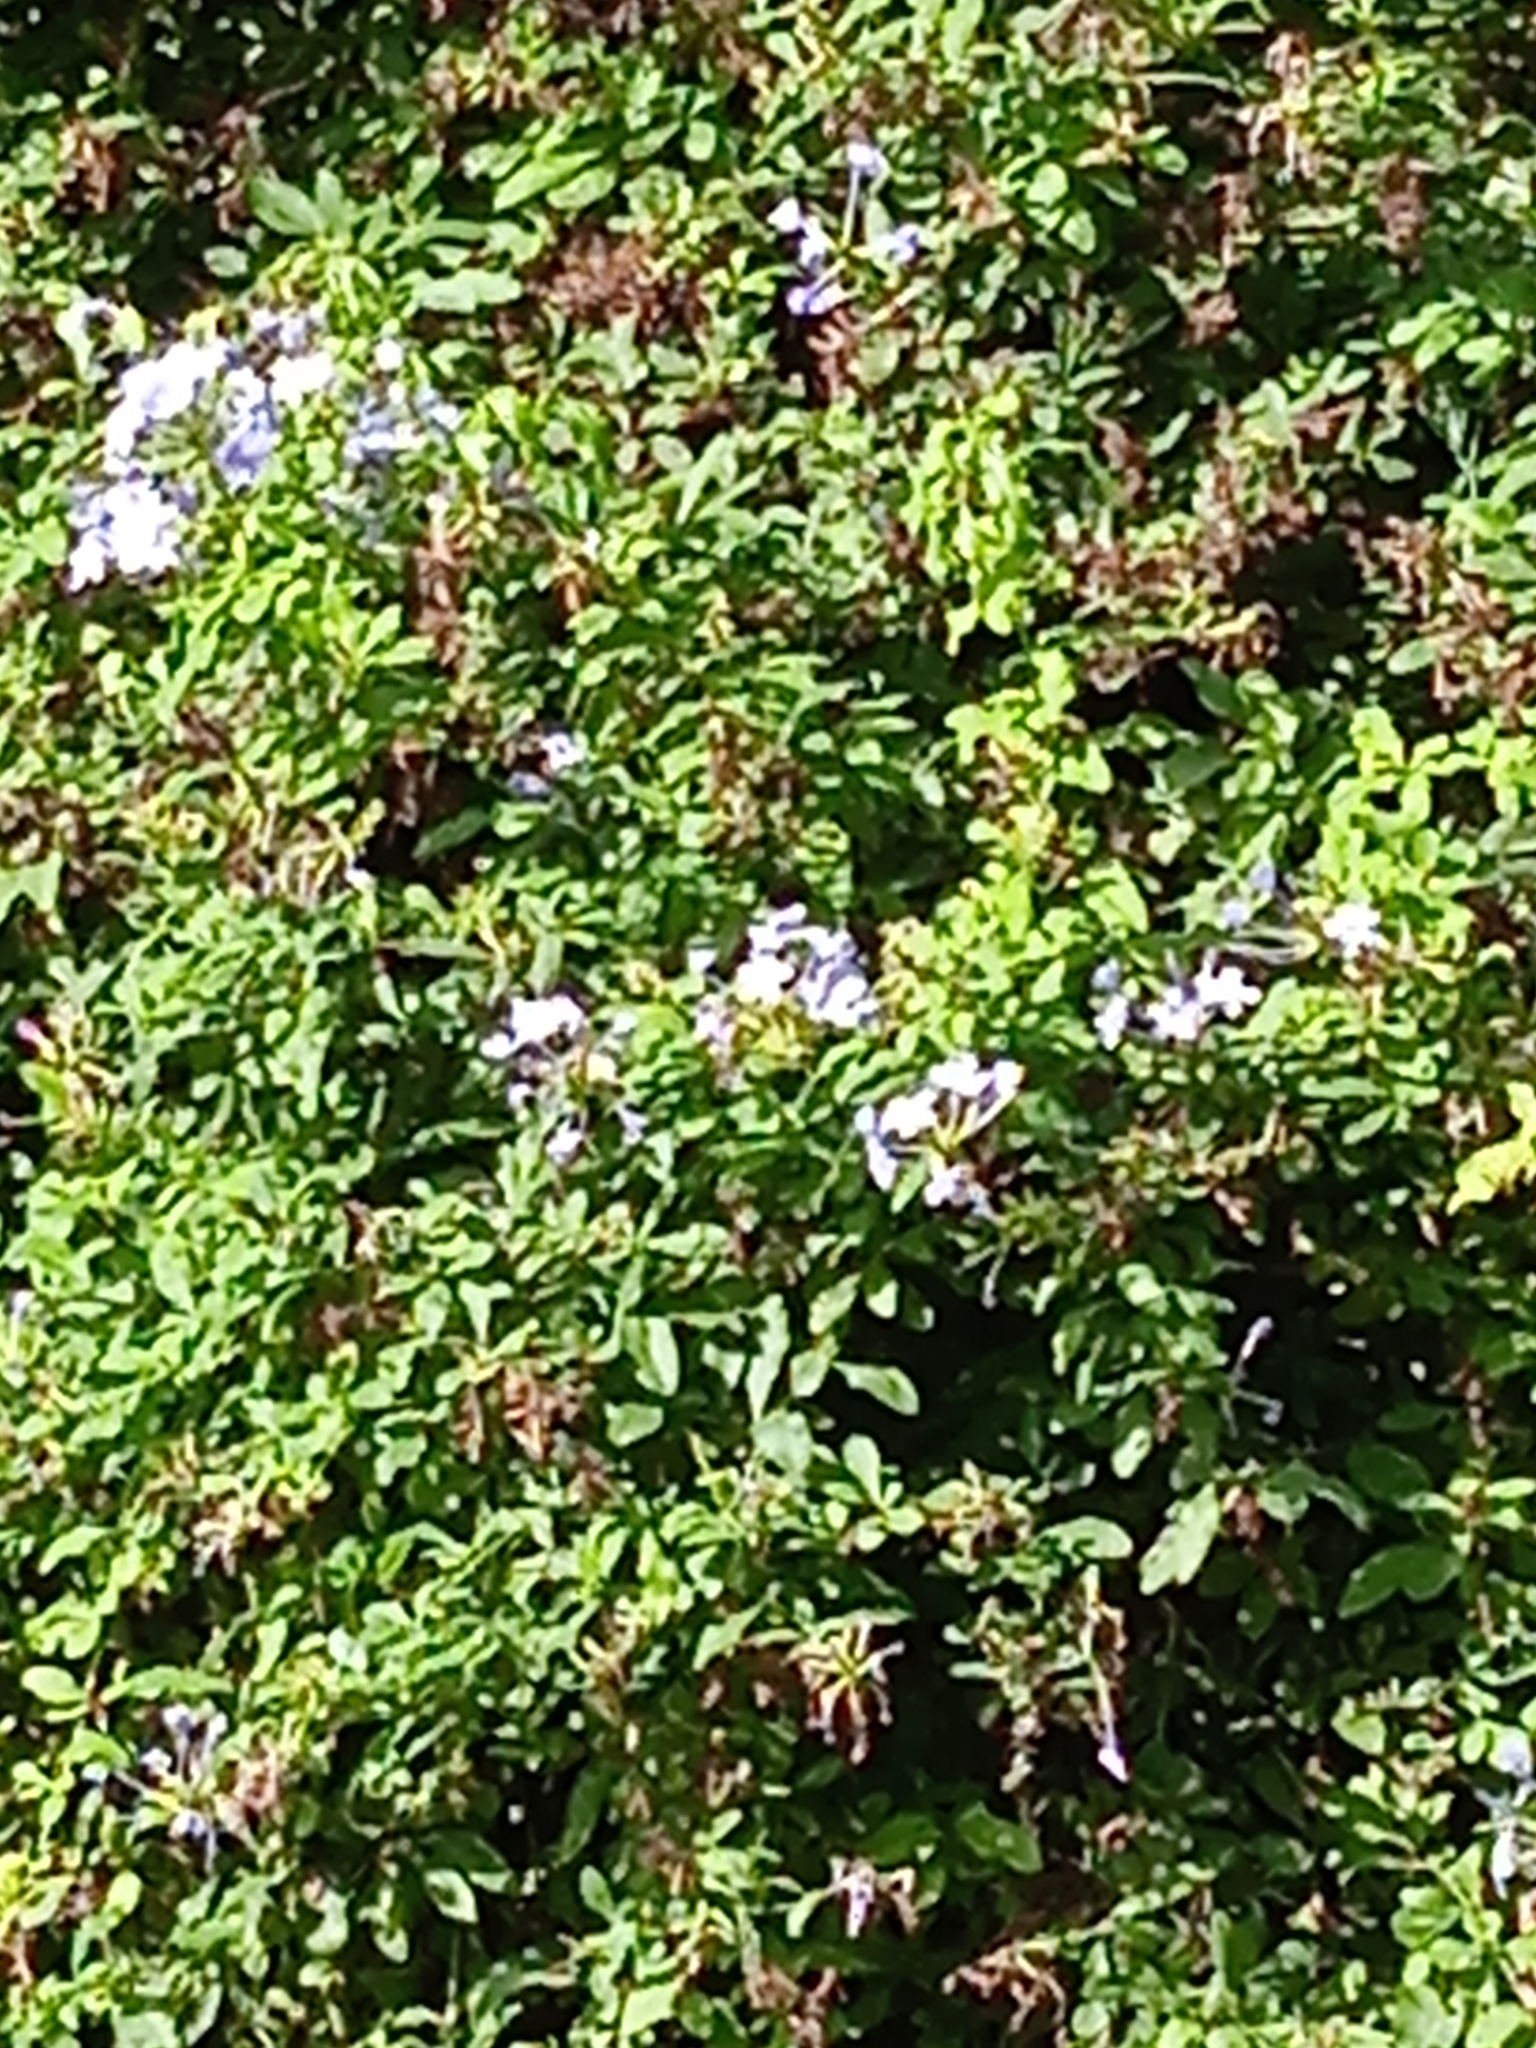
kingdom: Plantae
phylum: Tracheophyta
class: Magnoliopsida
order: Caryophyllales
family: Plumbaginaceae
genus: Plumbago
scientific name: Plumbago auriculata
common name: Cape leadwort
